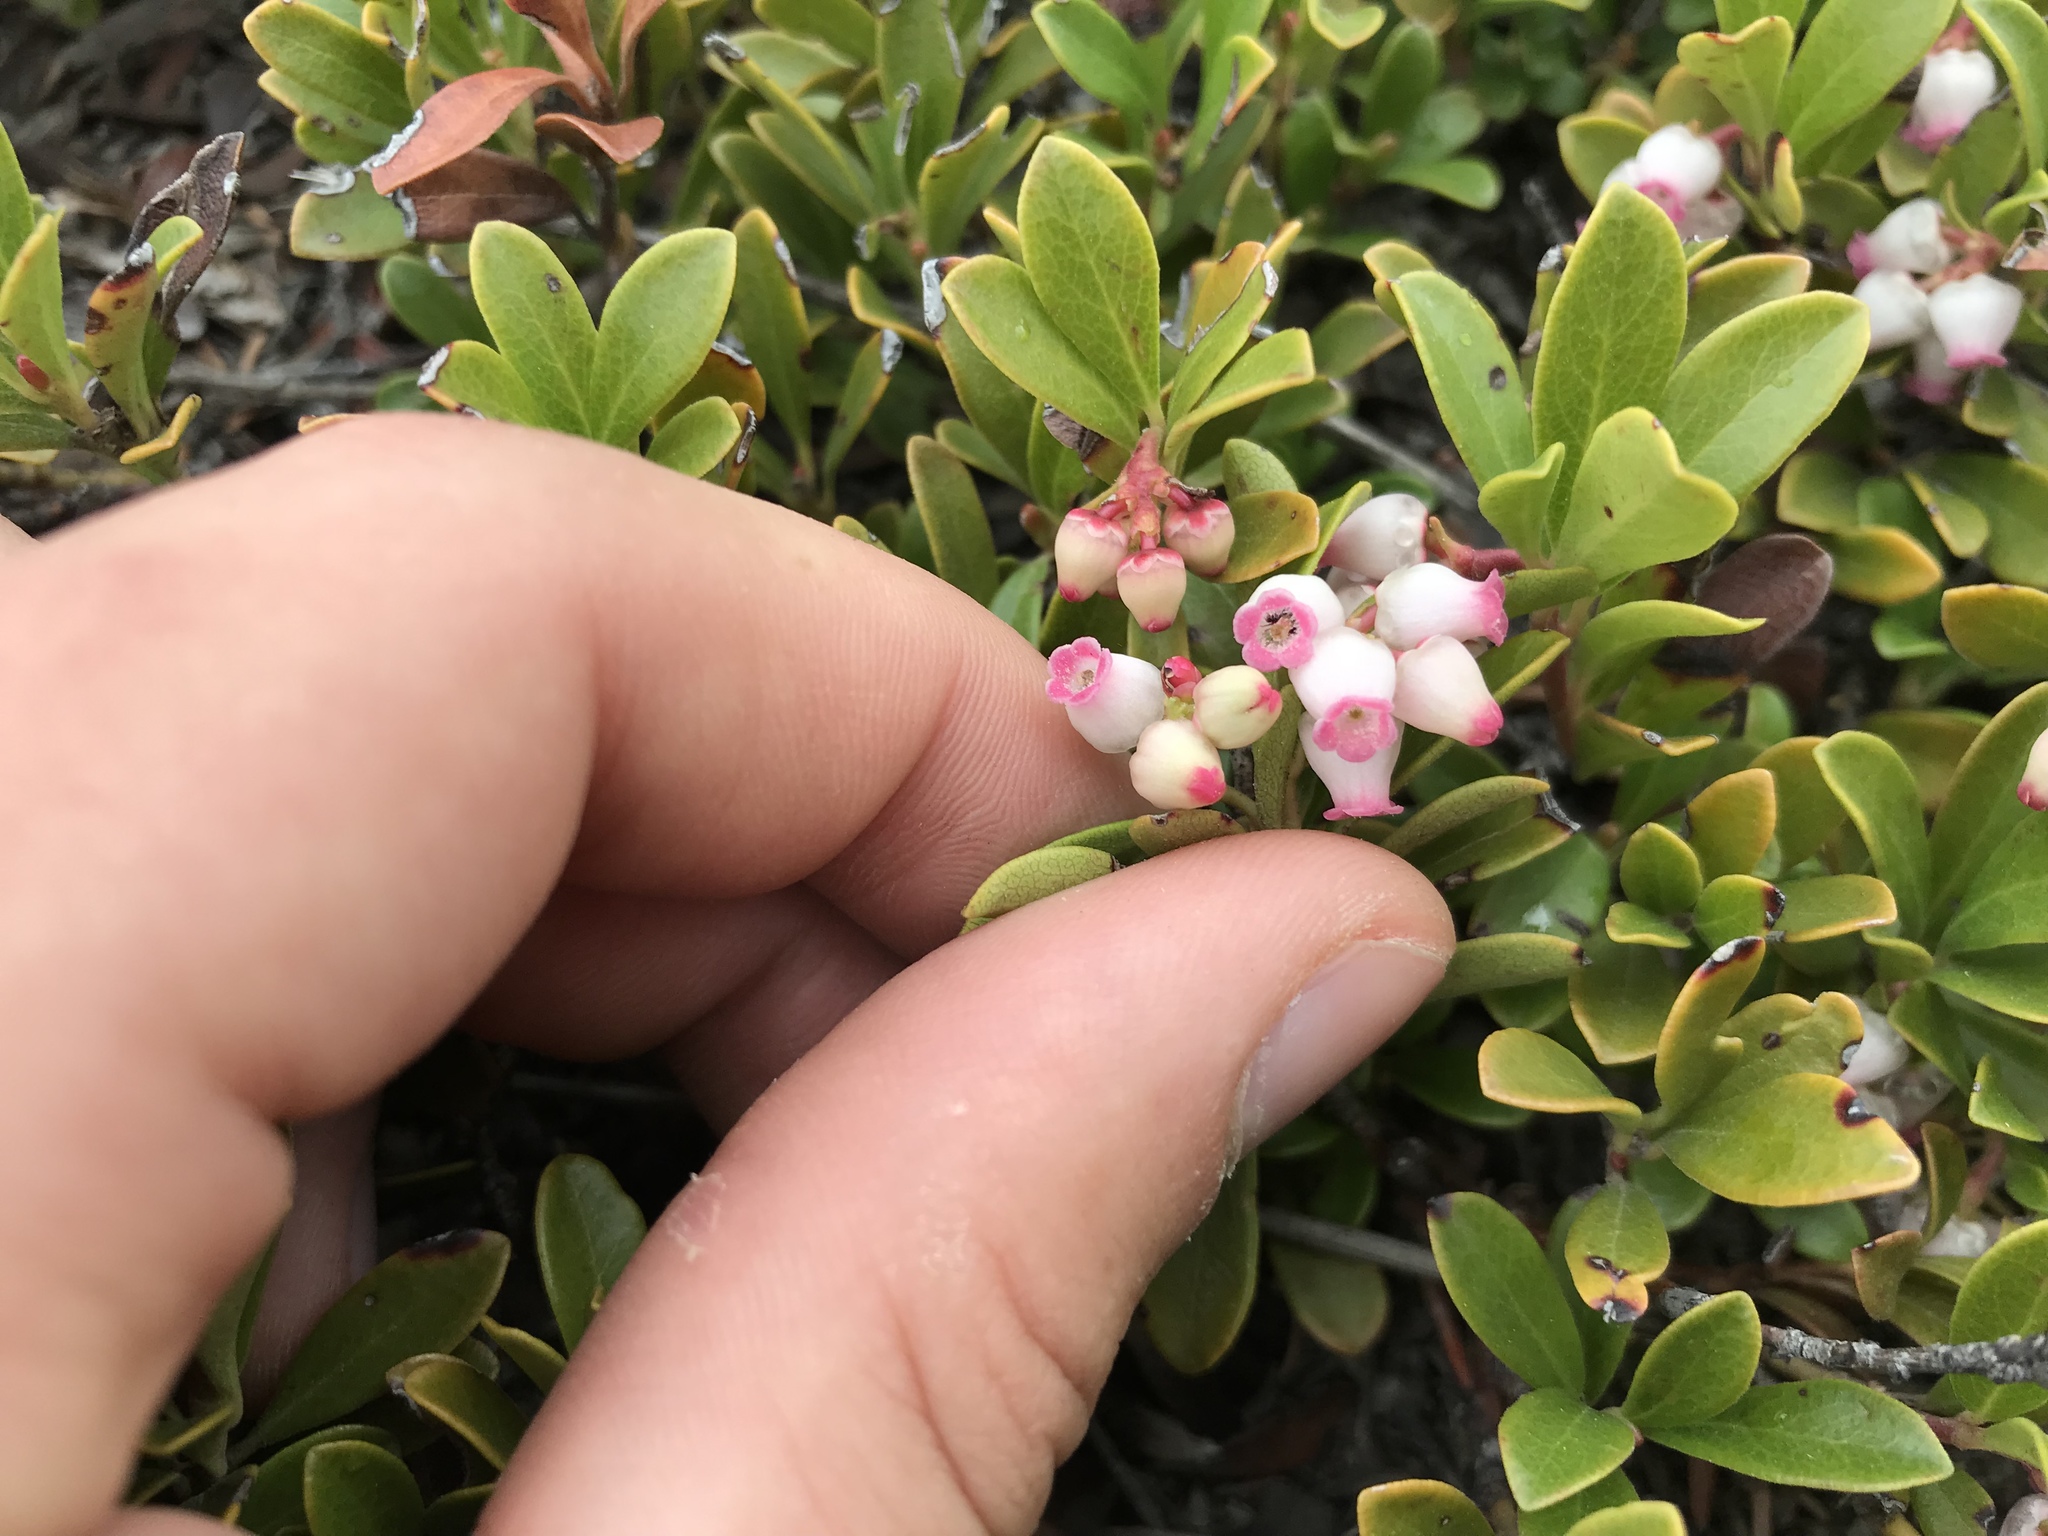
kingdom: Plantae
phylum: Tracheophyta
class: Magnoliopsida
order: Ericales
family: Ericaceae
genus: Arctostaphylos
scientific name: Arctostaphylos uva-ursi
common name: Bearberry
